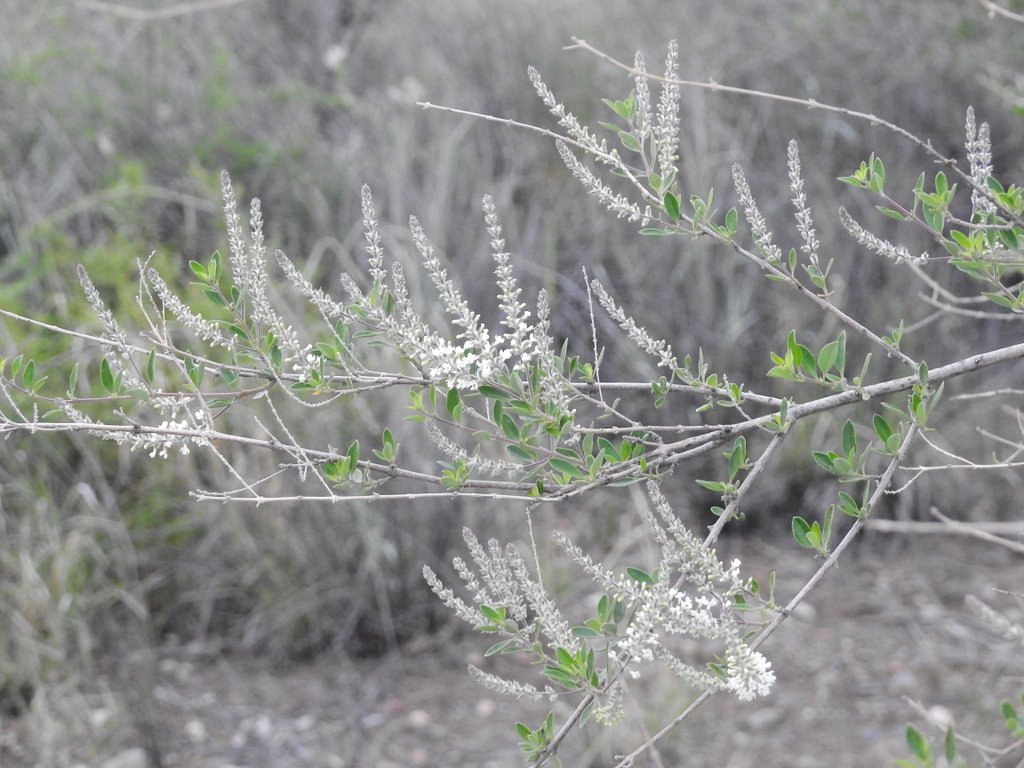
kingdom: Plantae
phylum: Tracheophyta
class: Magnoliopsida
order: Lamiales
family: Verbenaceae
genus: Aloysia
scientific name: Aloysia gratissima
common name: Common bee-brush
